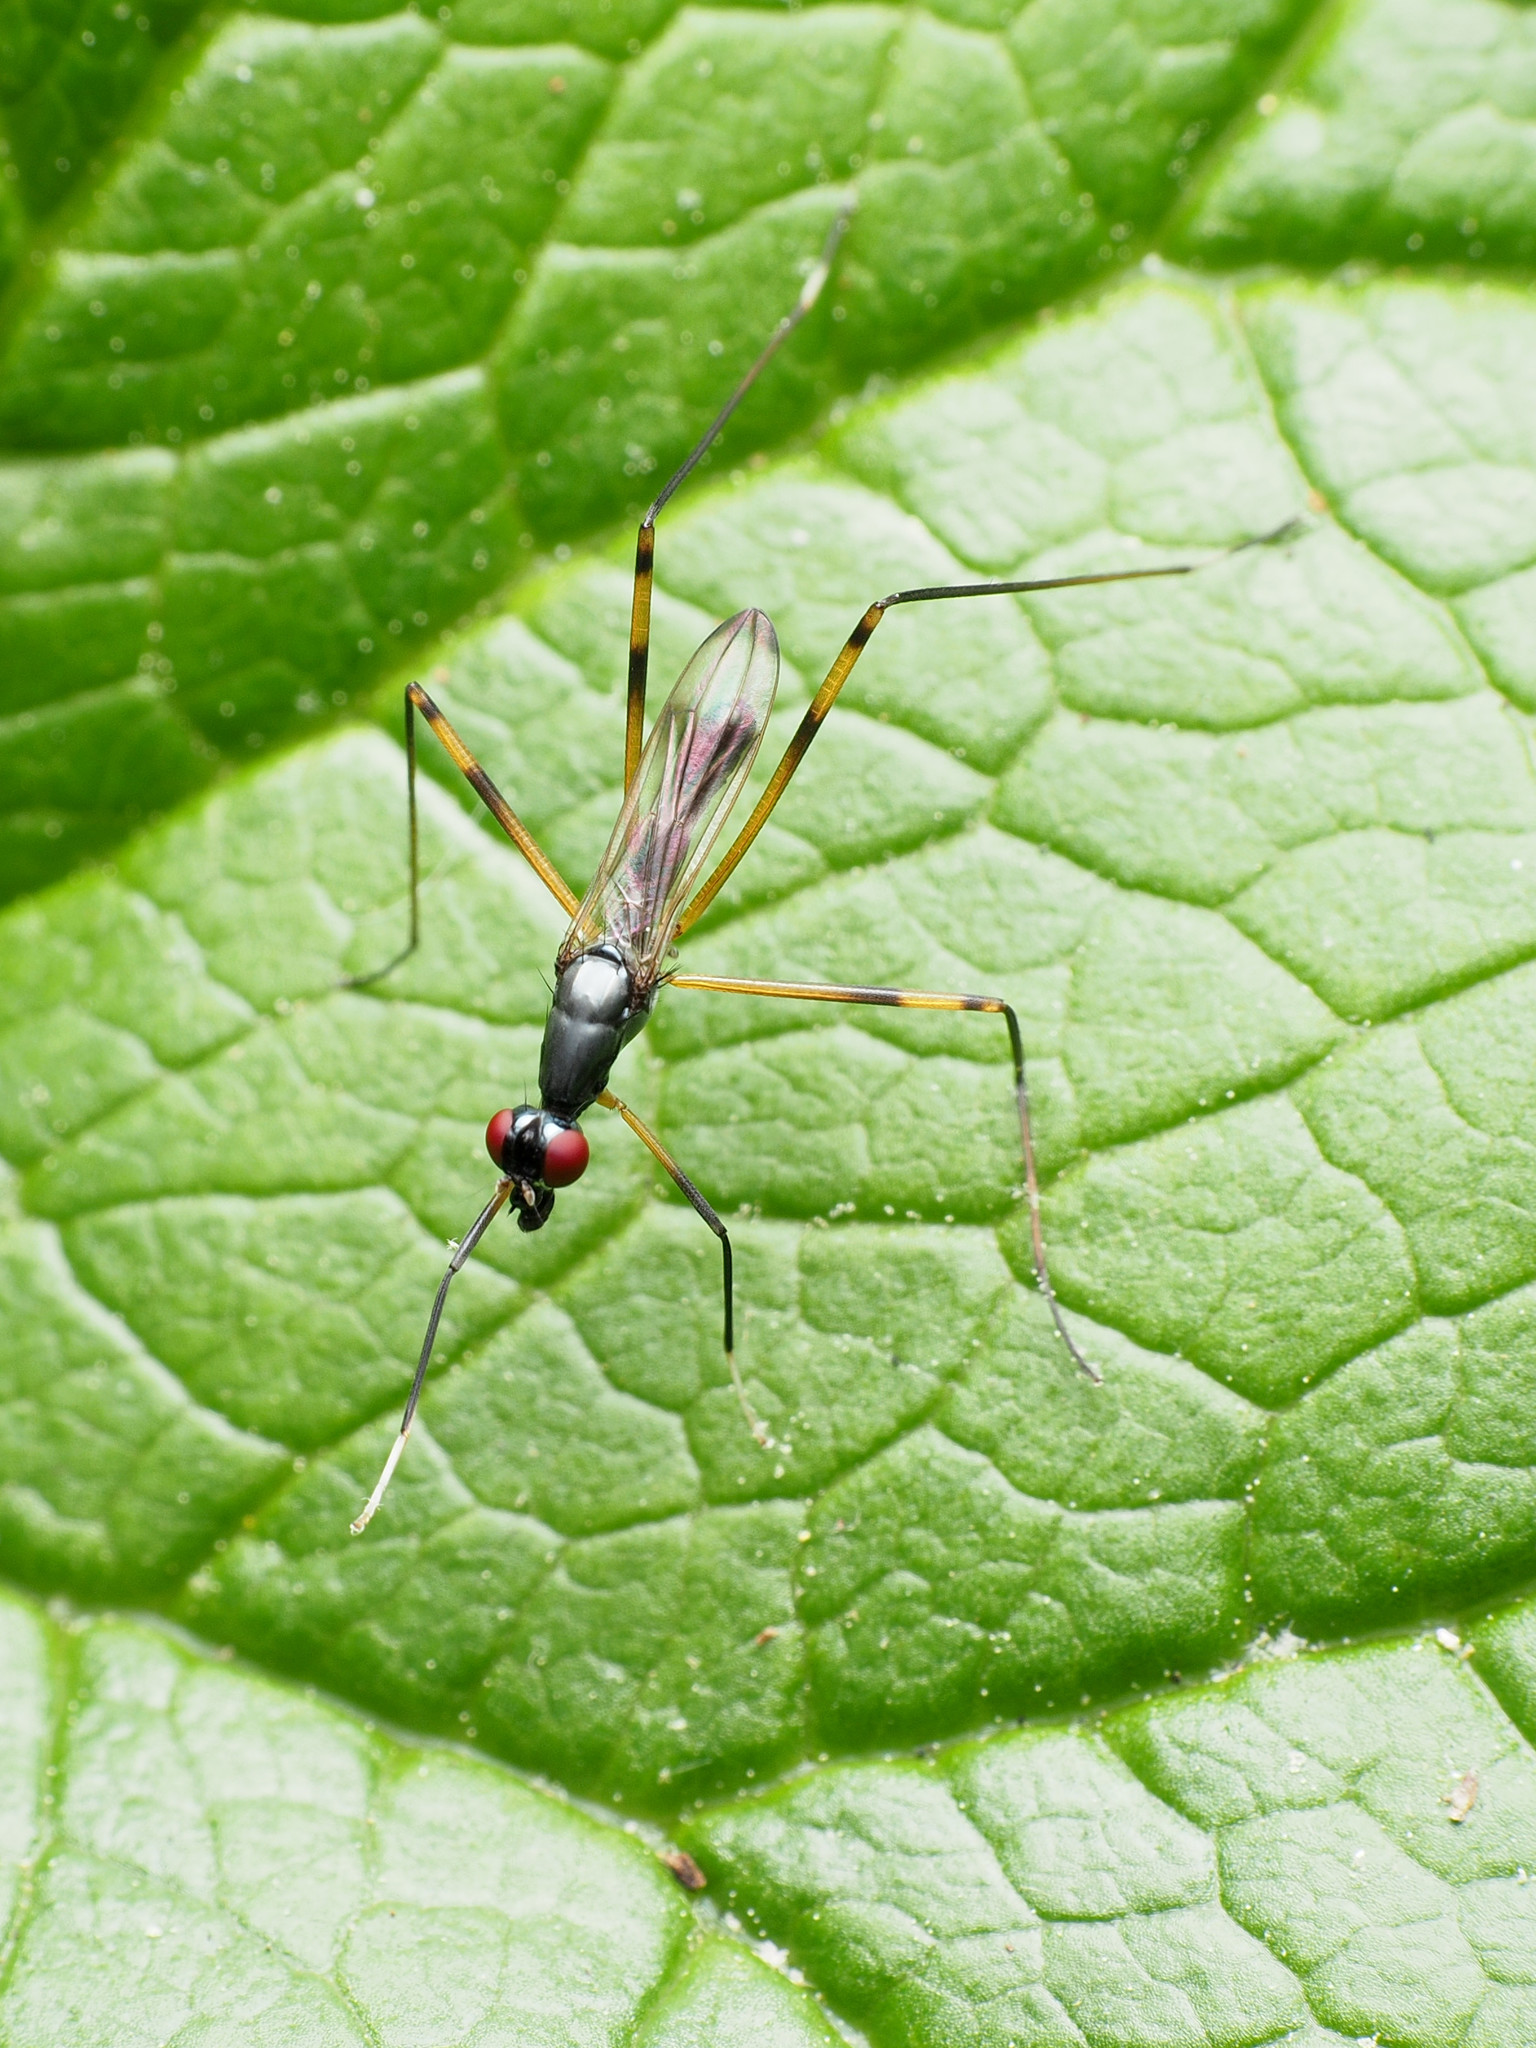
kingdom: Animalia
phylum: Arthropoda
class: Insecta
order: Diptera
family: Micropezidae
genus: Rainieria
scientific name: Rainieria antennaepes
